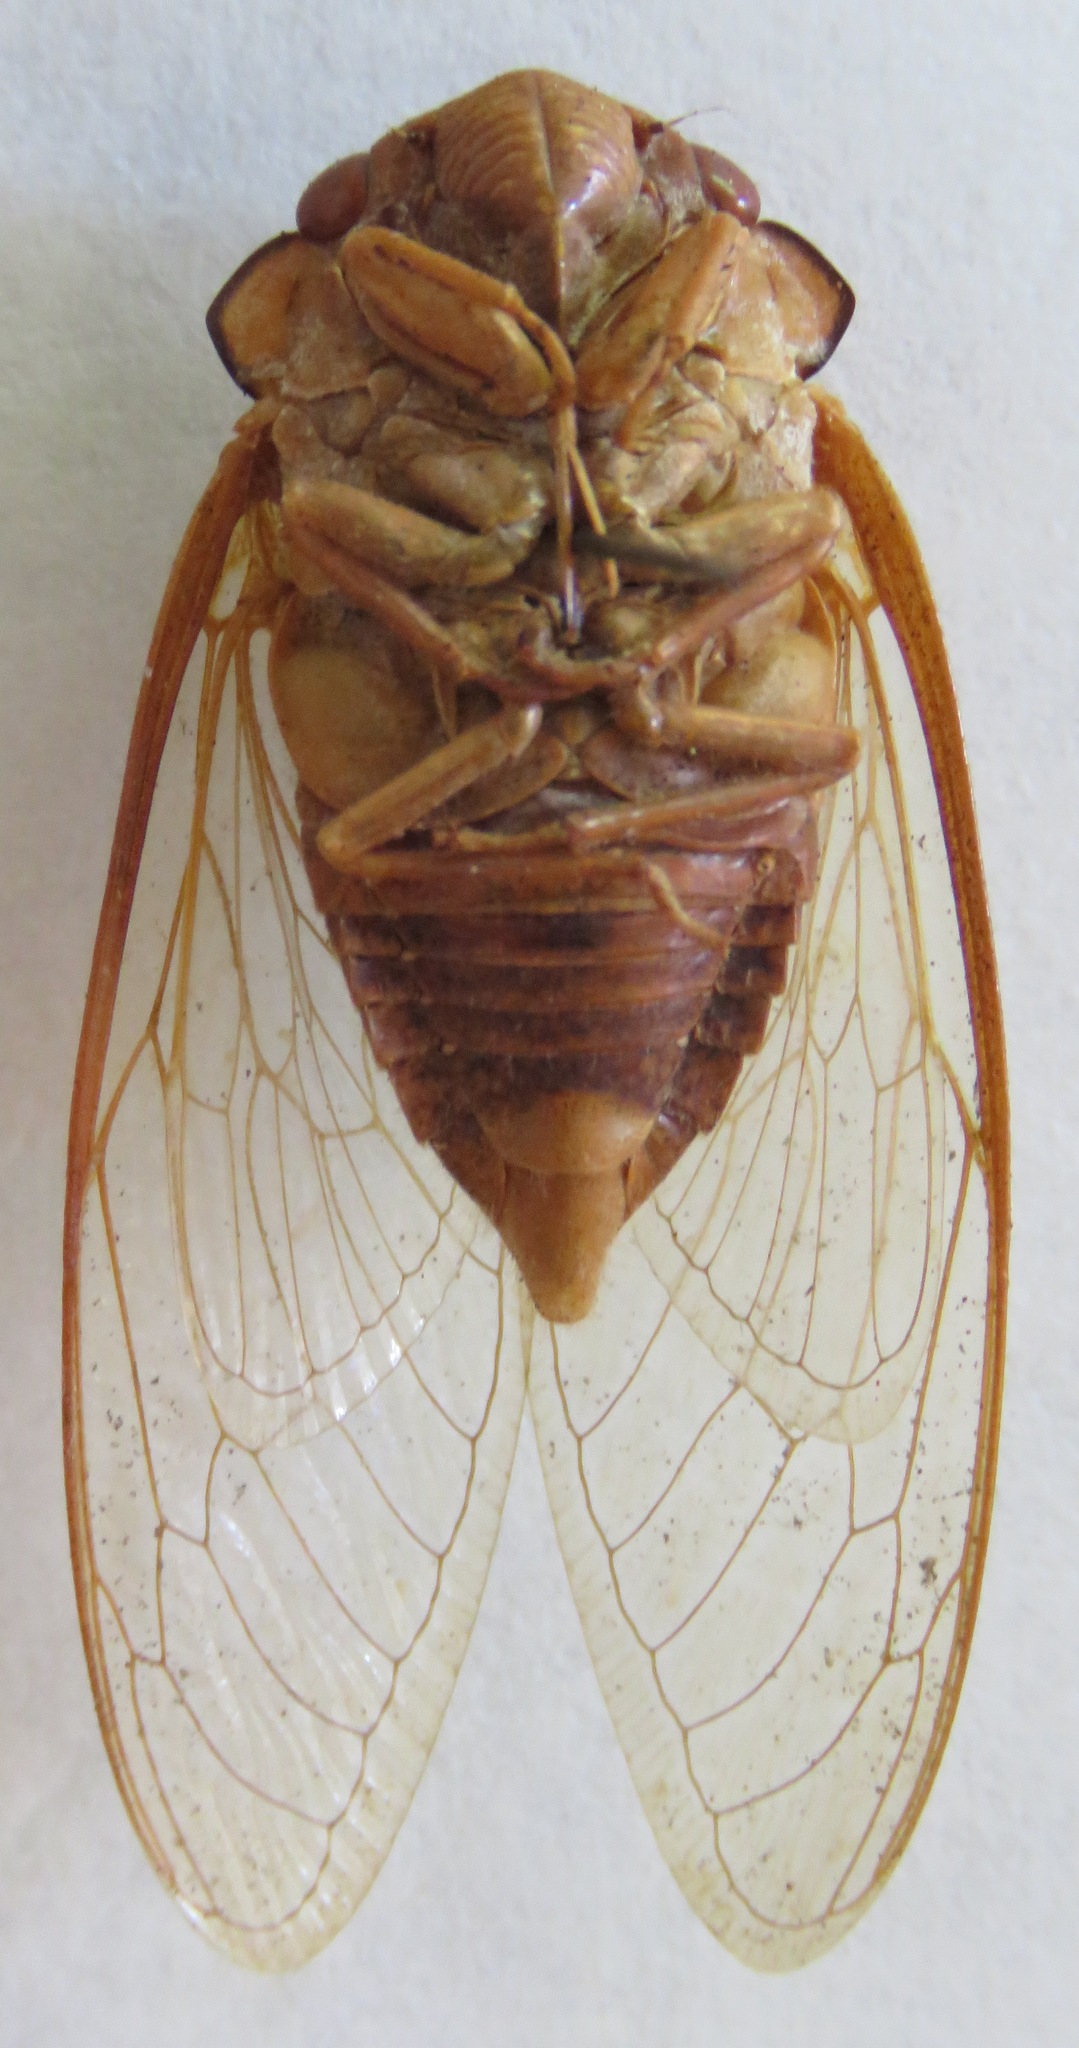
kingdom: Animalia
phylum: Arthropoda
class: Insecta
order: Hemiptera
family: Cicadidae
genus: Sadaka
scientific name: Sadaka virescens
